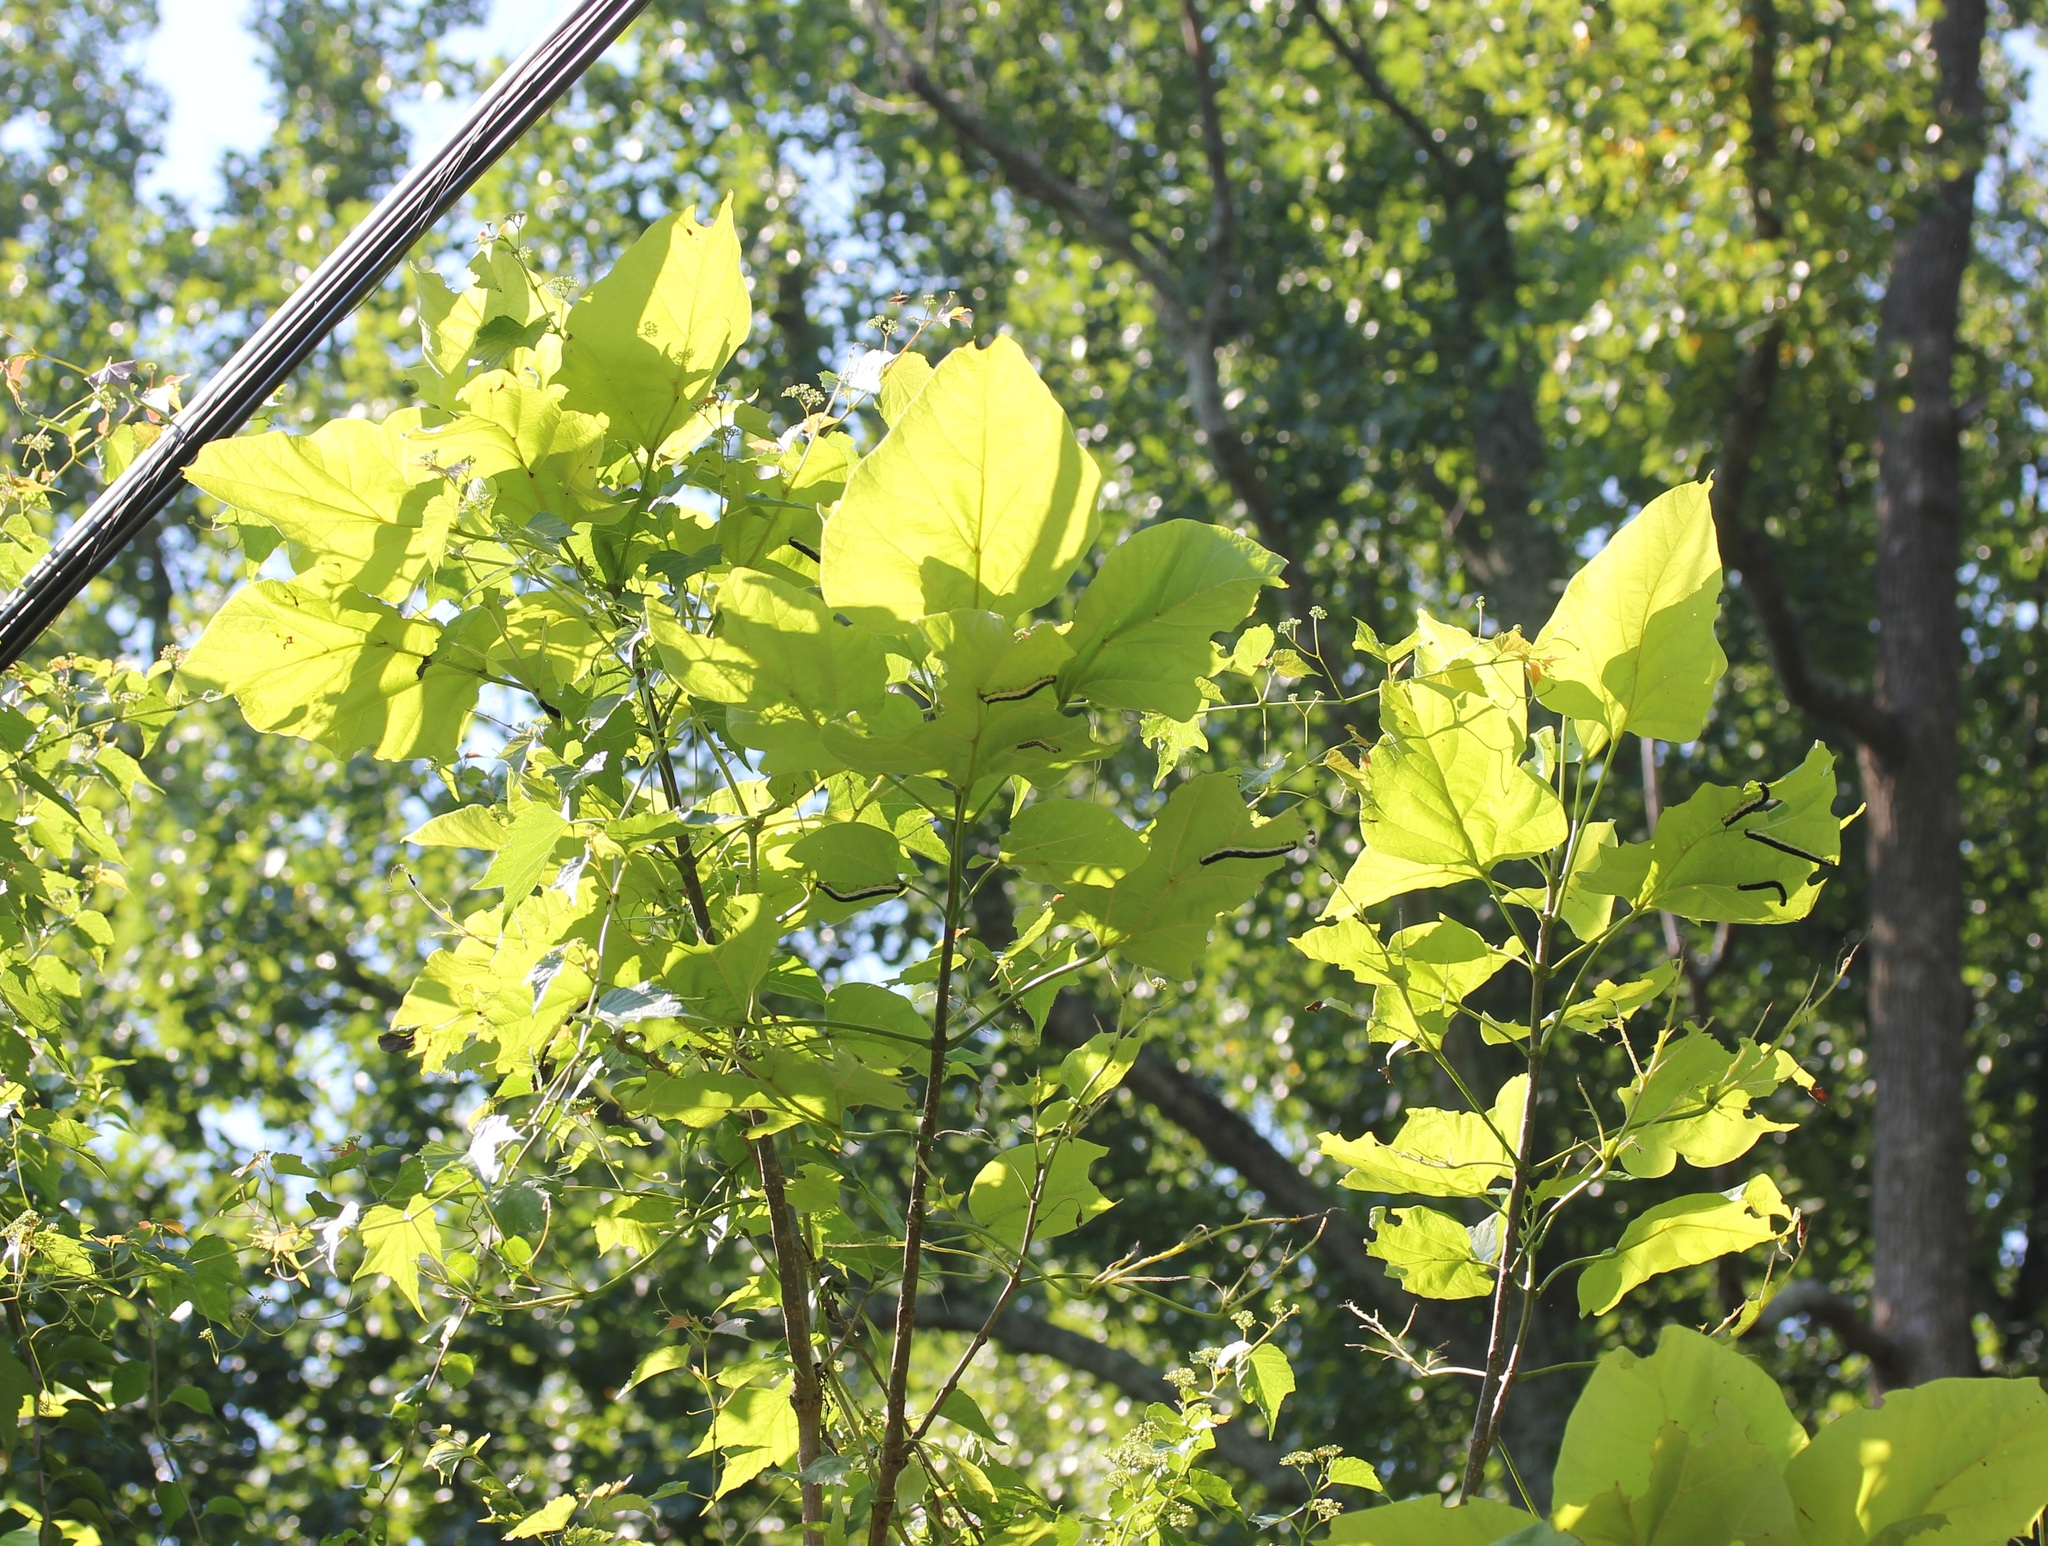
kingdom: Animalia
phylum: Arthropoda
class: Insecta
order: Lepidoptera
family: Sphingidae
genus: Ceratomia
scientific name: Ceratomia catalpae
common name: Catalpa hornworm
